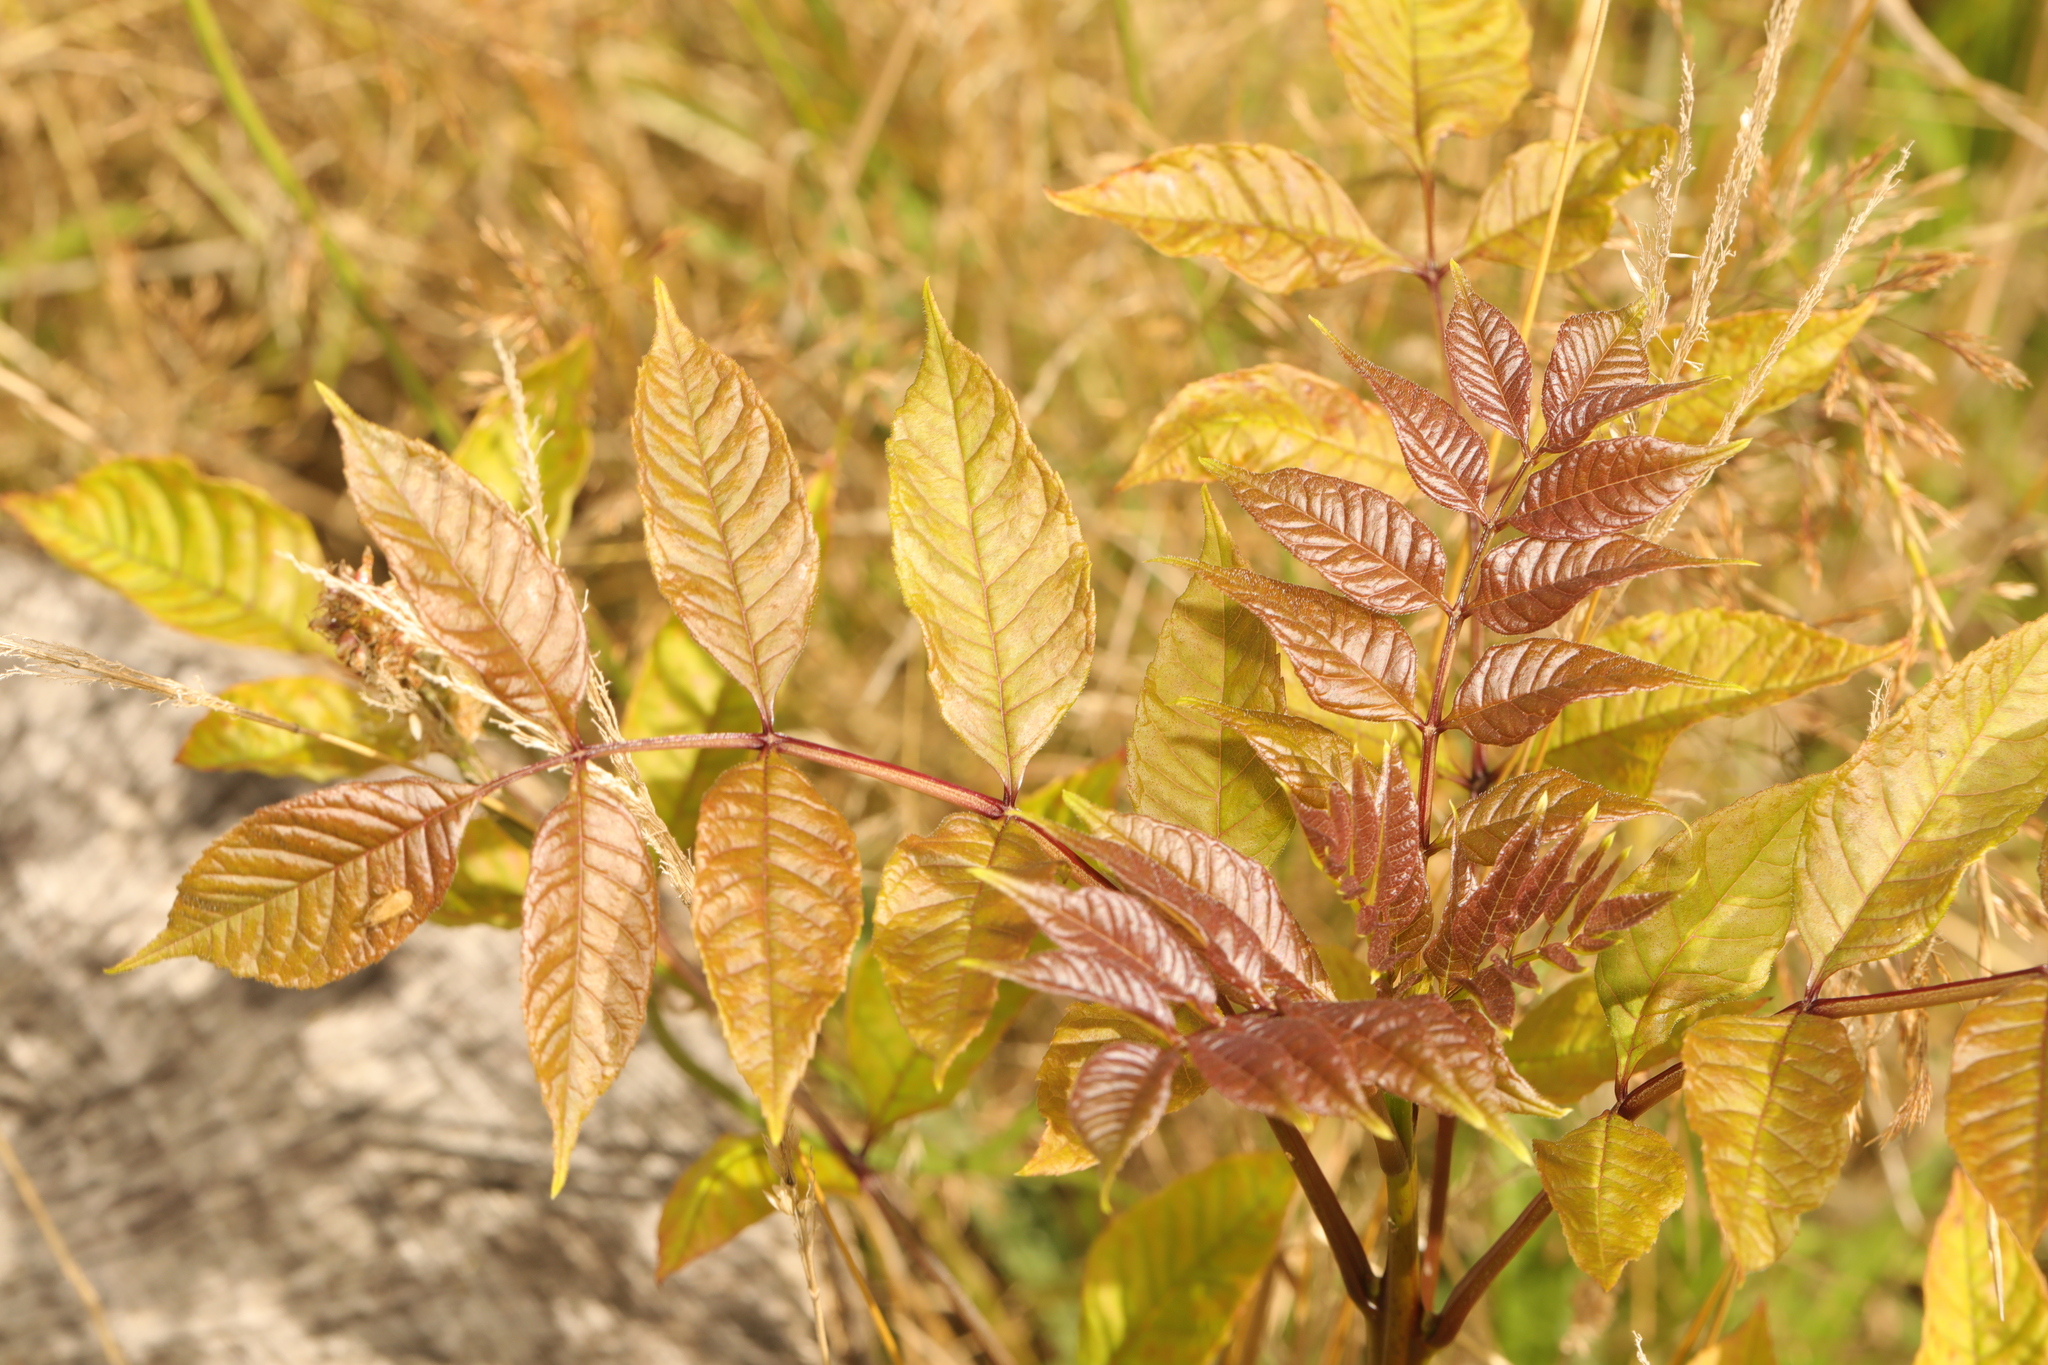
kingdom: Plantae
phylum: Tracheophyta
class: Magnoliopsida
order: Lamiales
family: Oleaceae
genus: Fraxinus
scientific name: Fraxinus excelsior
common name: European ash
